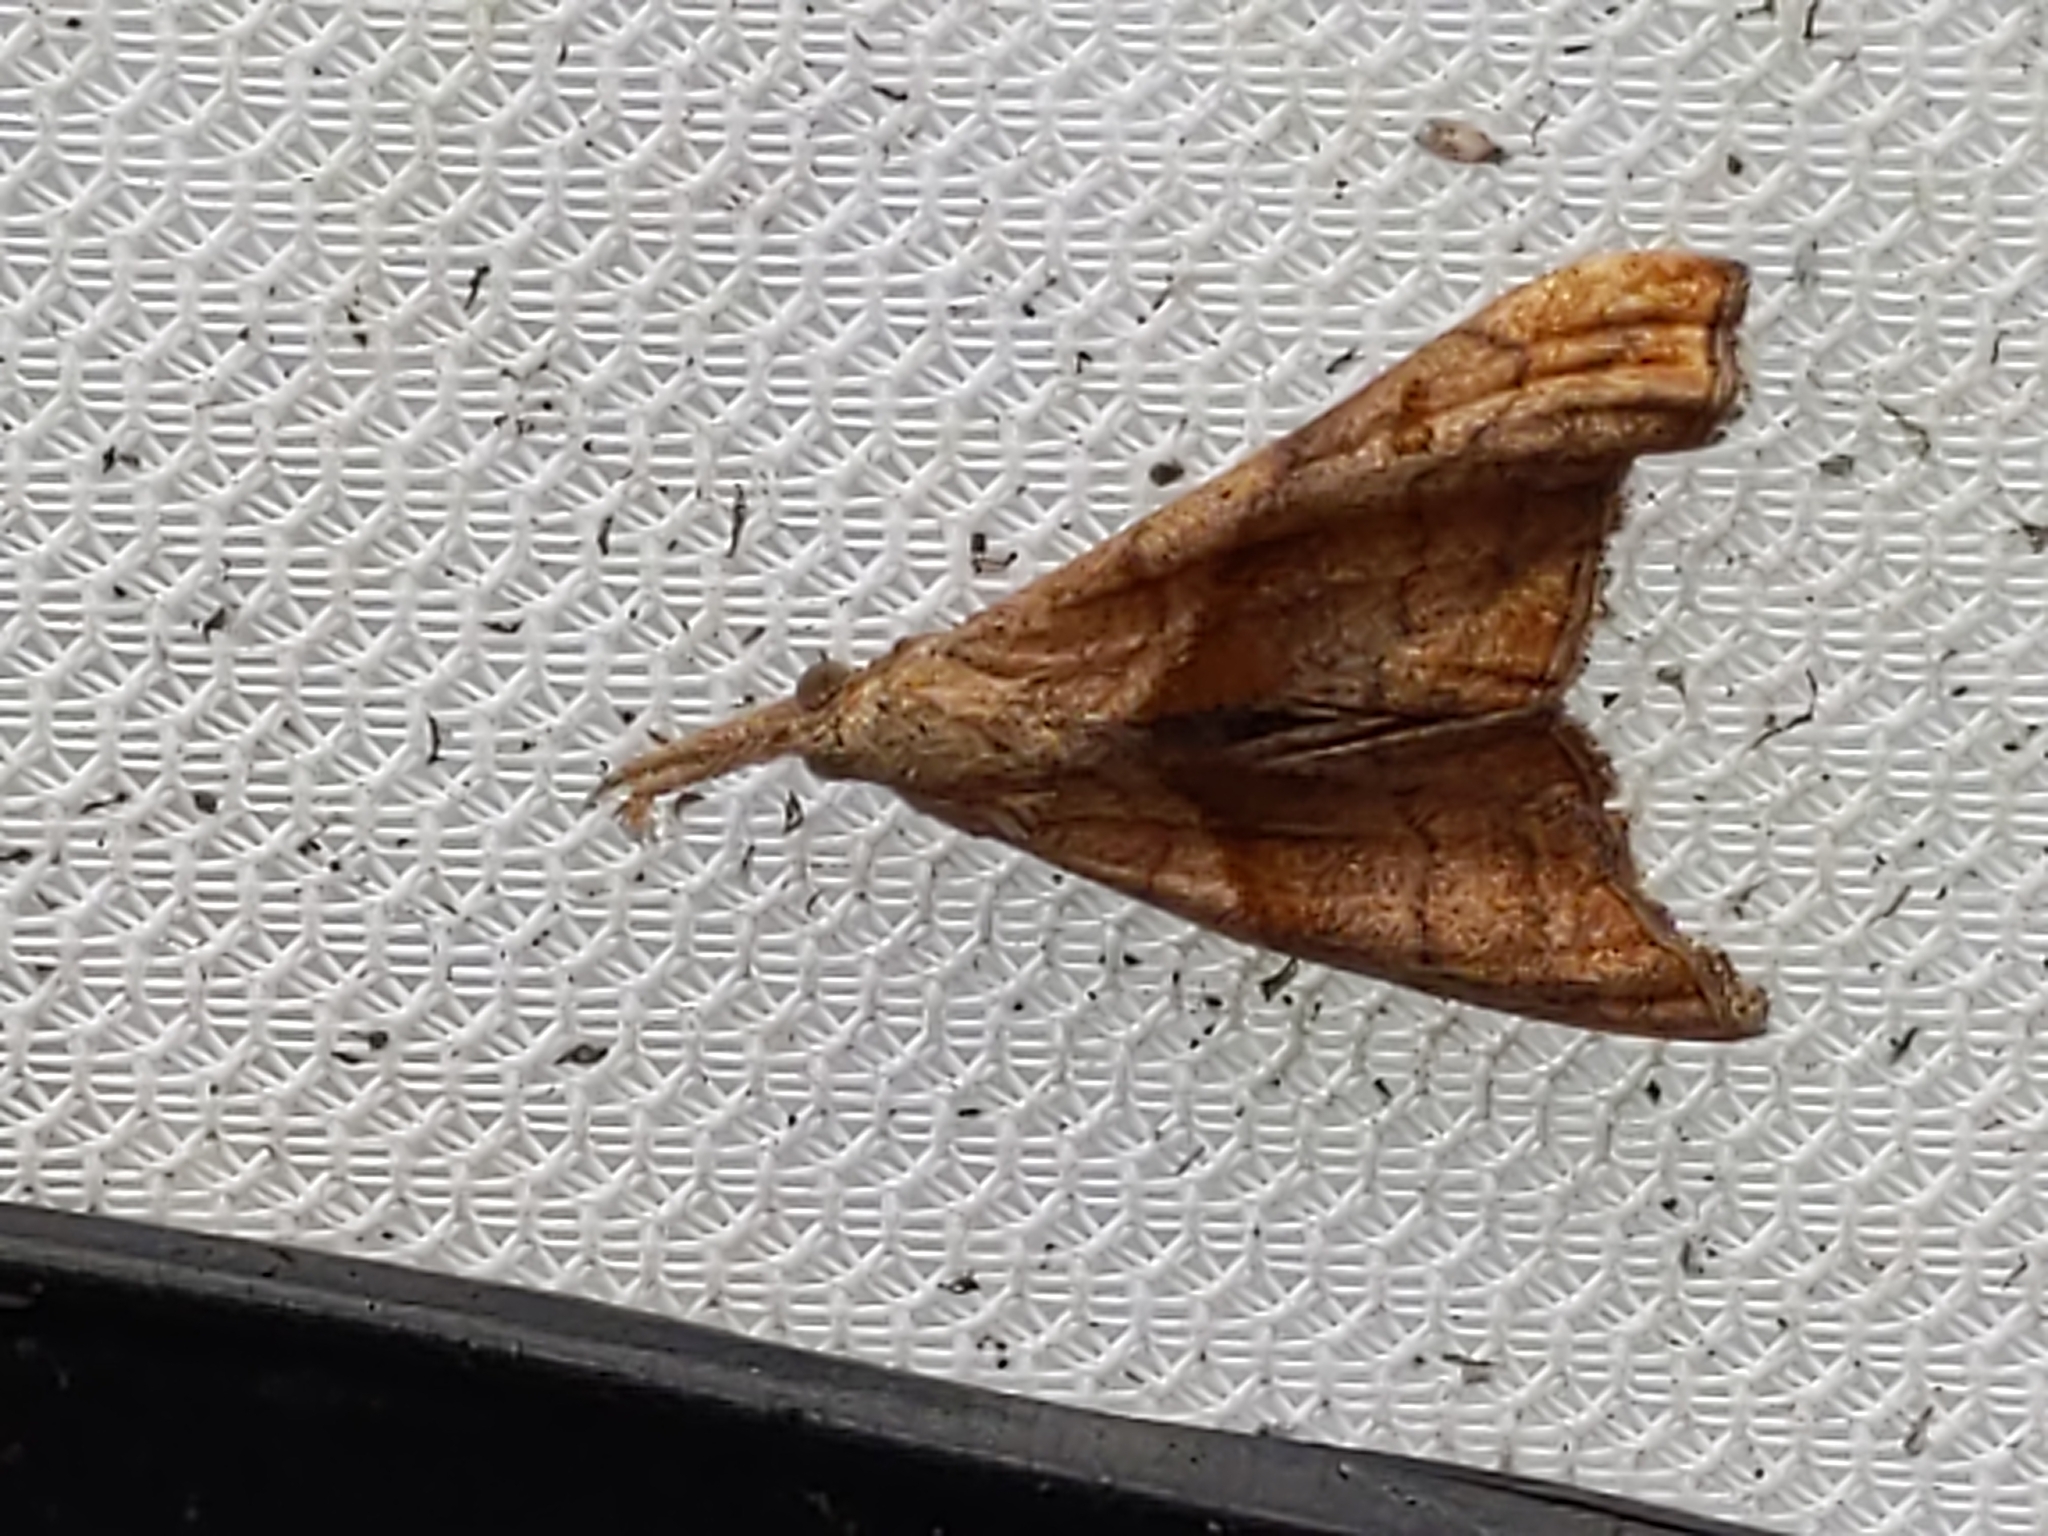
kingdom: Animalia
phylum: Arthropoda
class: Insecta
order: Lepidoptera
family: Erebidae
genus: Palthis
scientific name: Palthis angulalis
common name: Dark-spotted palthis moth
